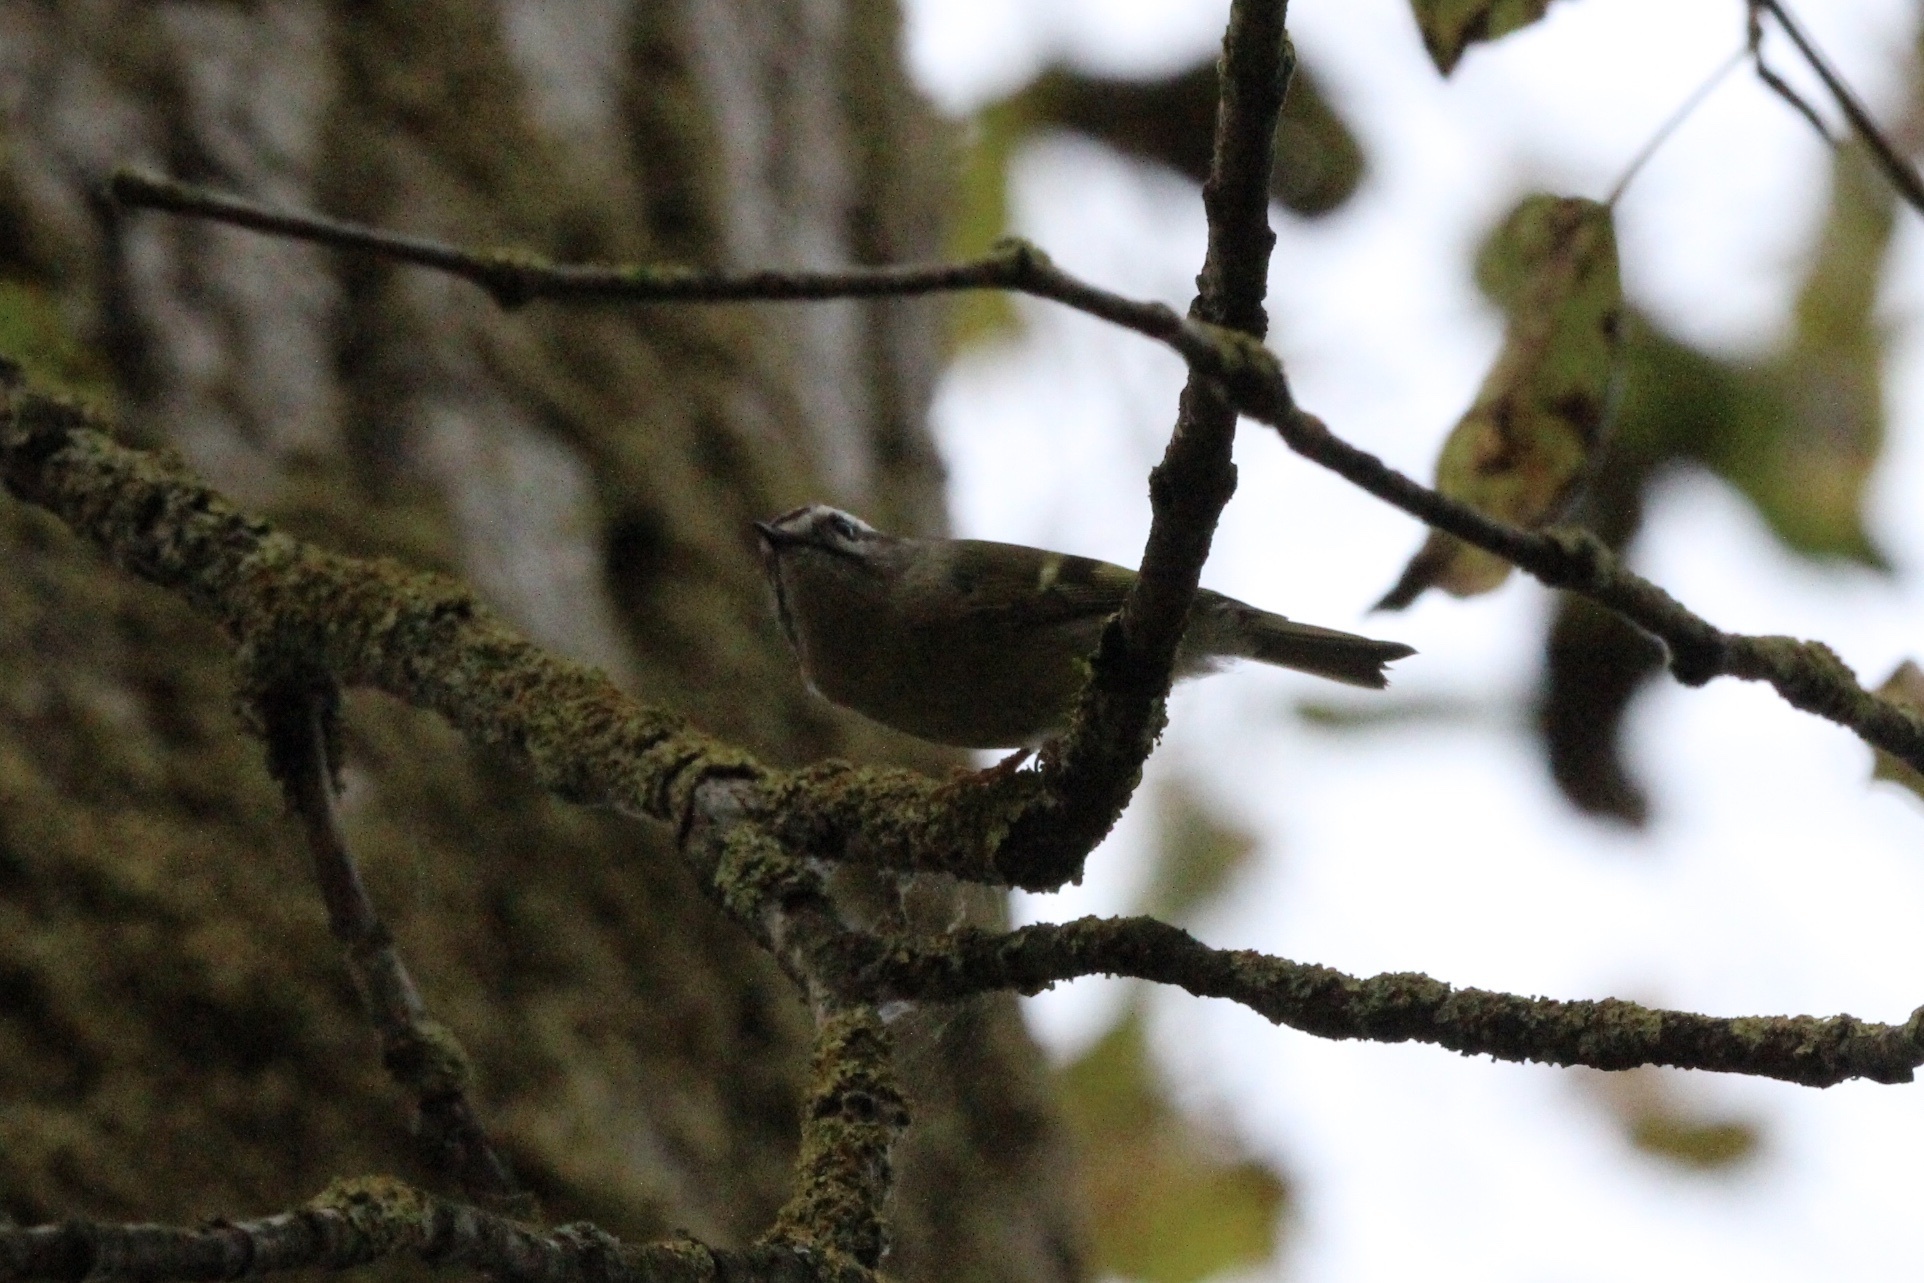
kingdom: Animalia
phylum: Chordata
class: Aves
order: Passeriformes
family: Regulidae
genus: Regulus
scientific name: Regulus satrapa
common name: Golden-crowned kinglet
